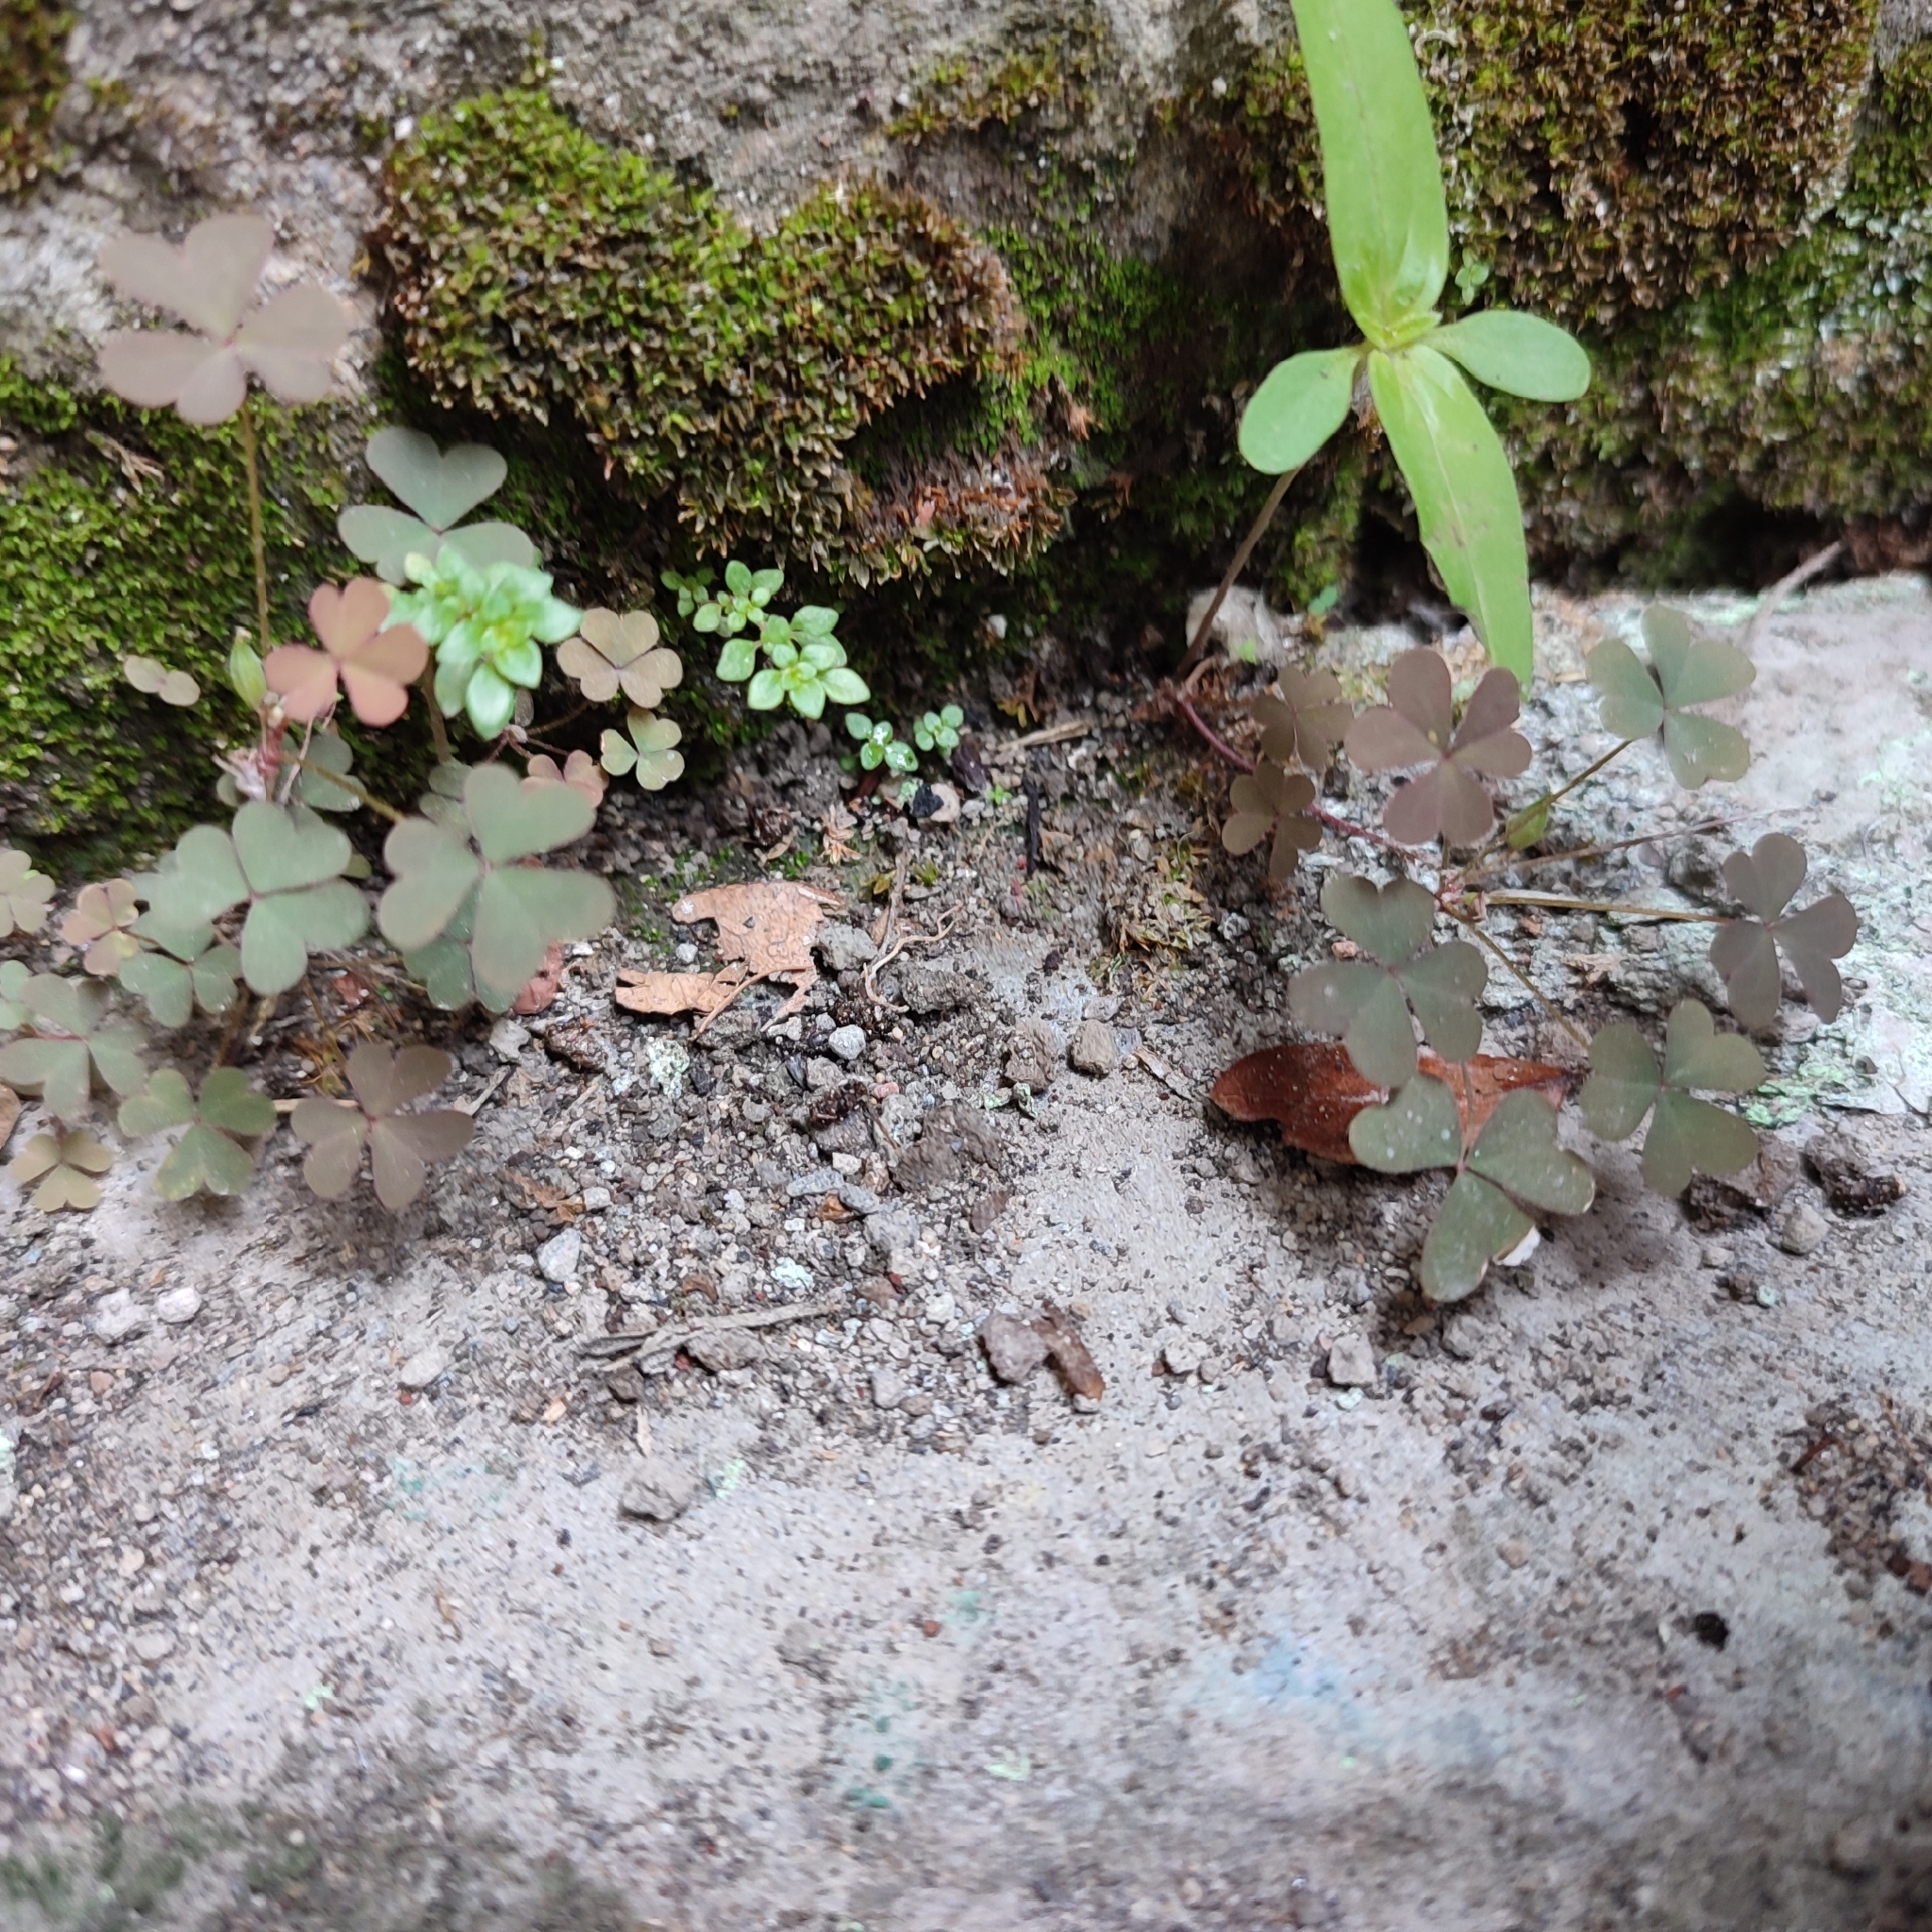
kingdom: Plantae
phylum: Tracheophyta
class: Magnoliopsida
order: Oxalidales
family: Oxalidaceae
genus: Oxalis
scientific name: Oxalis corniculata
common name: Procumbent yellow-sorrel
